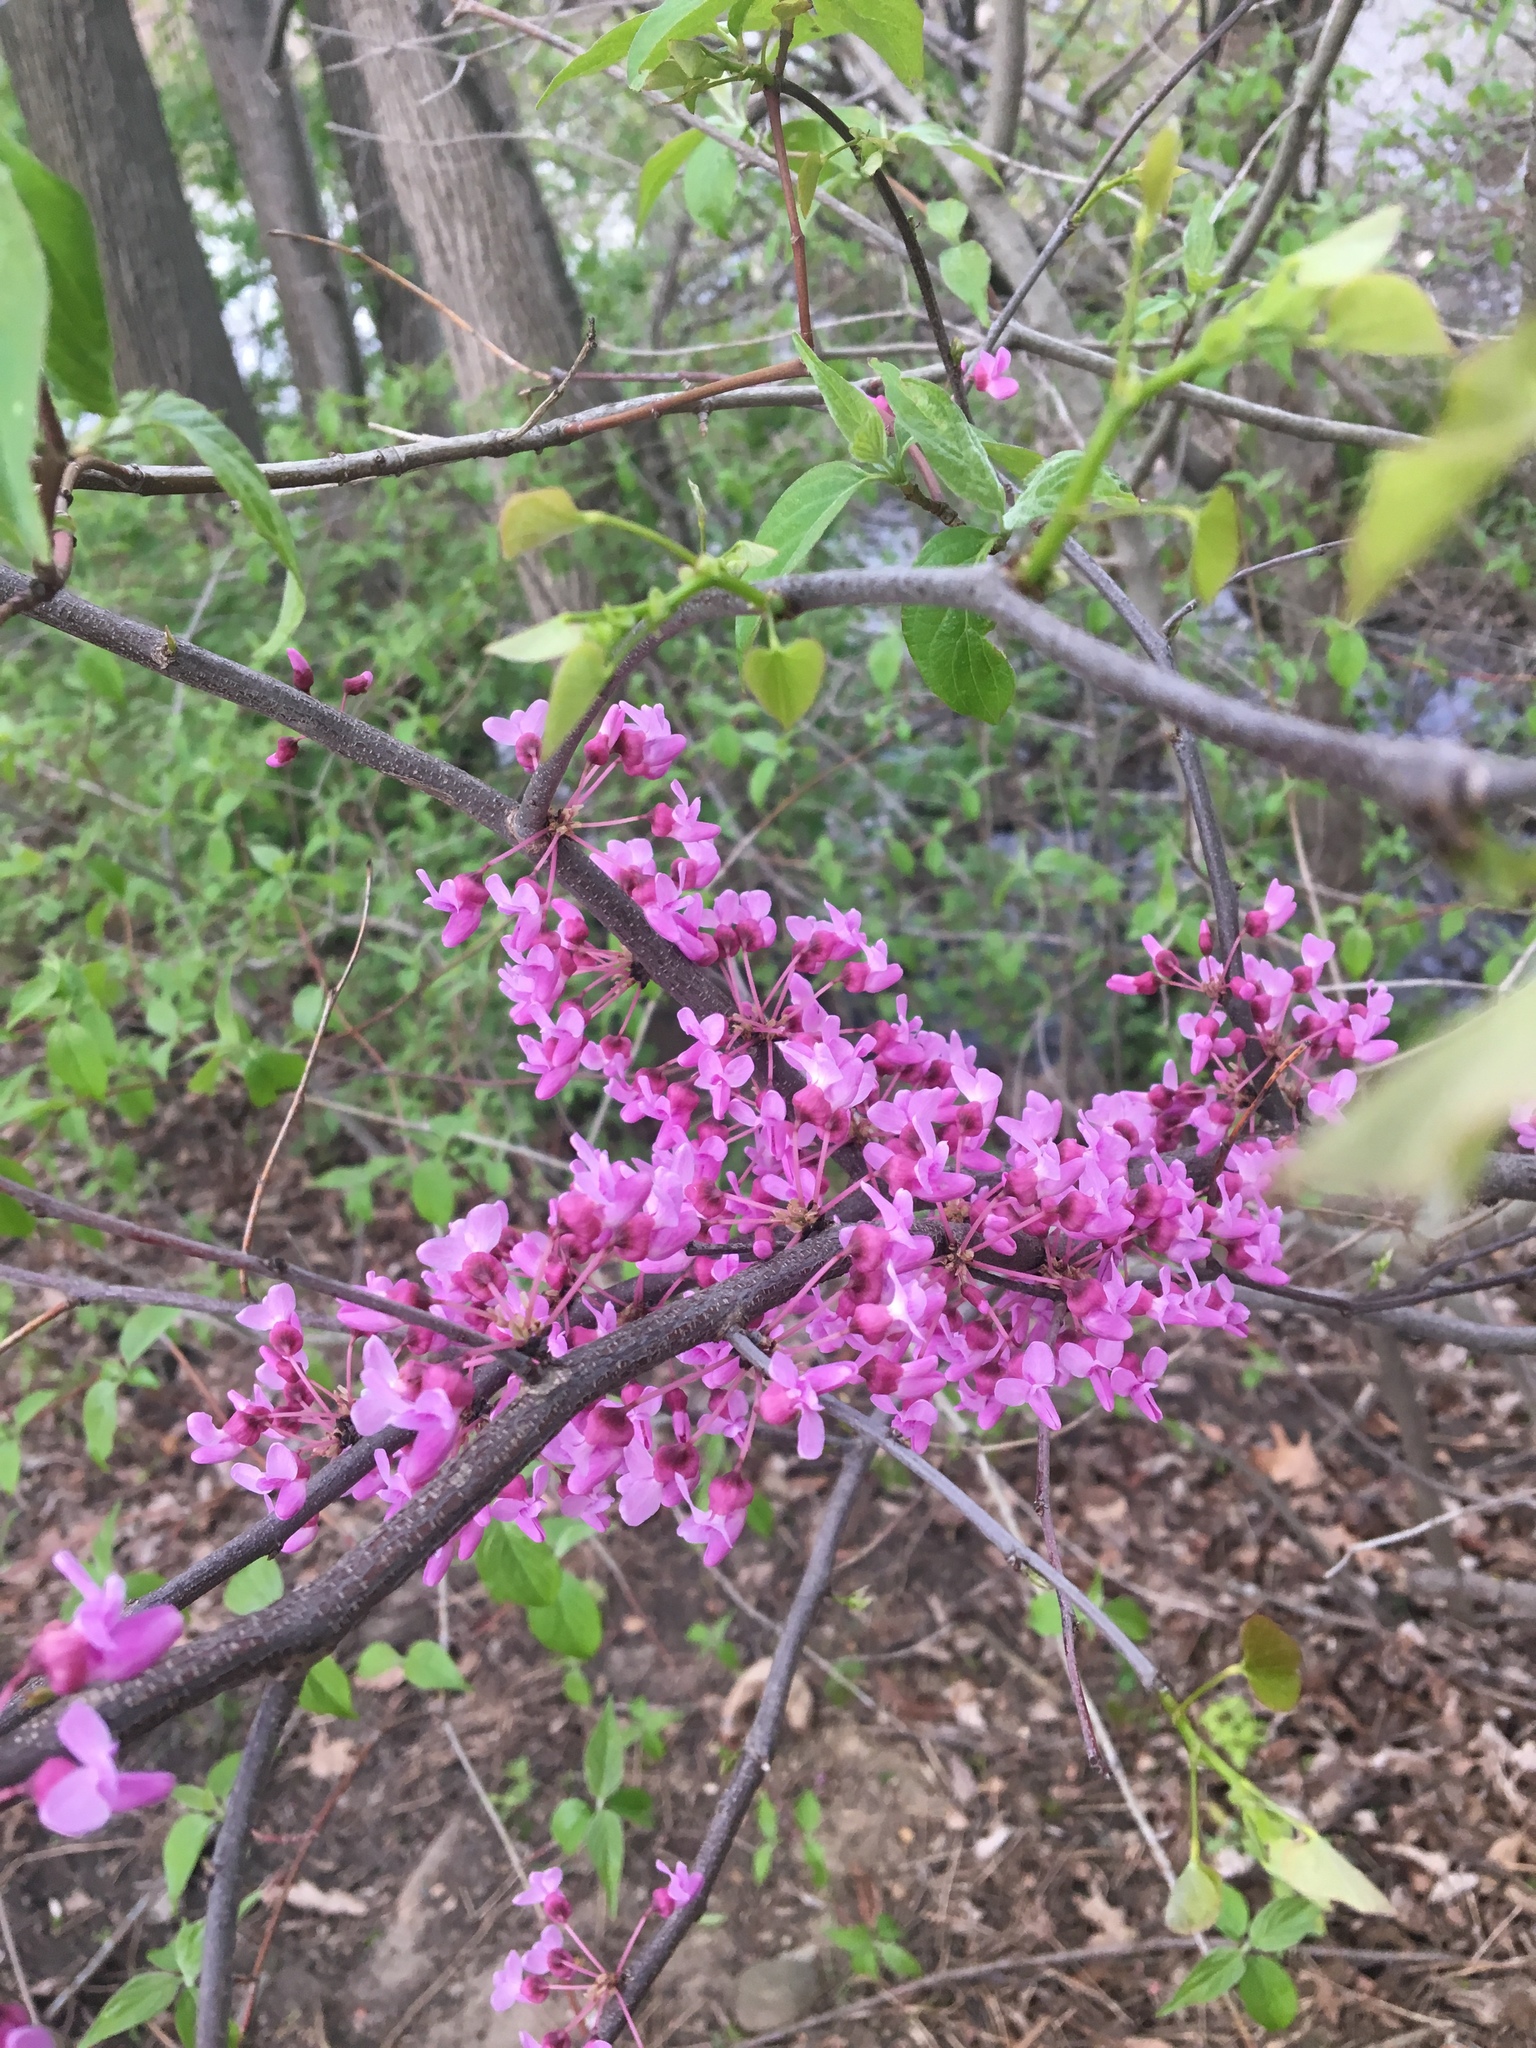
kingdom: Plantae
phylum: Tracheophyta
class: Magnoliopsida
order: Fabales
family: Fabaceae
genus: Cercis
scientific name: Cercis canadensis
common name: Eastern redbud
